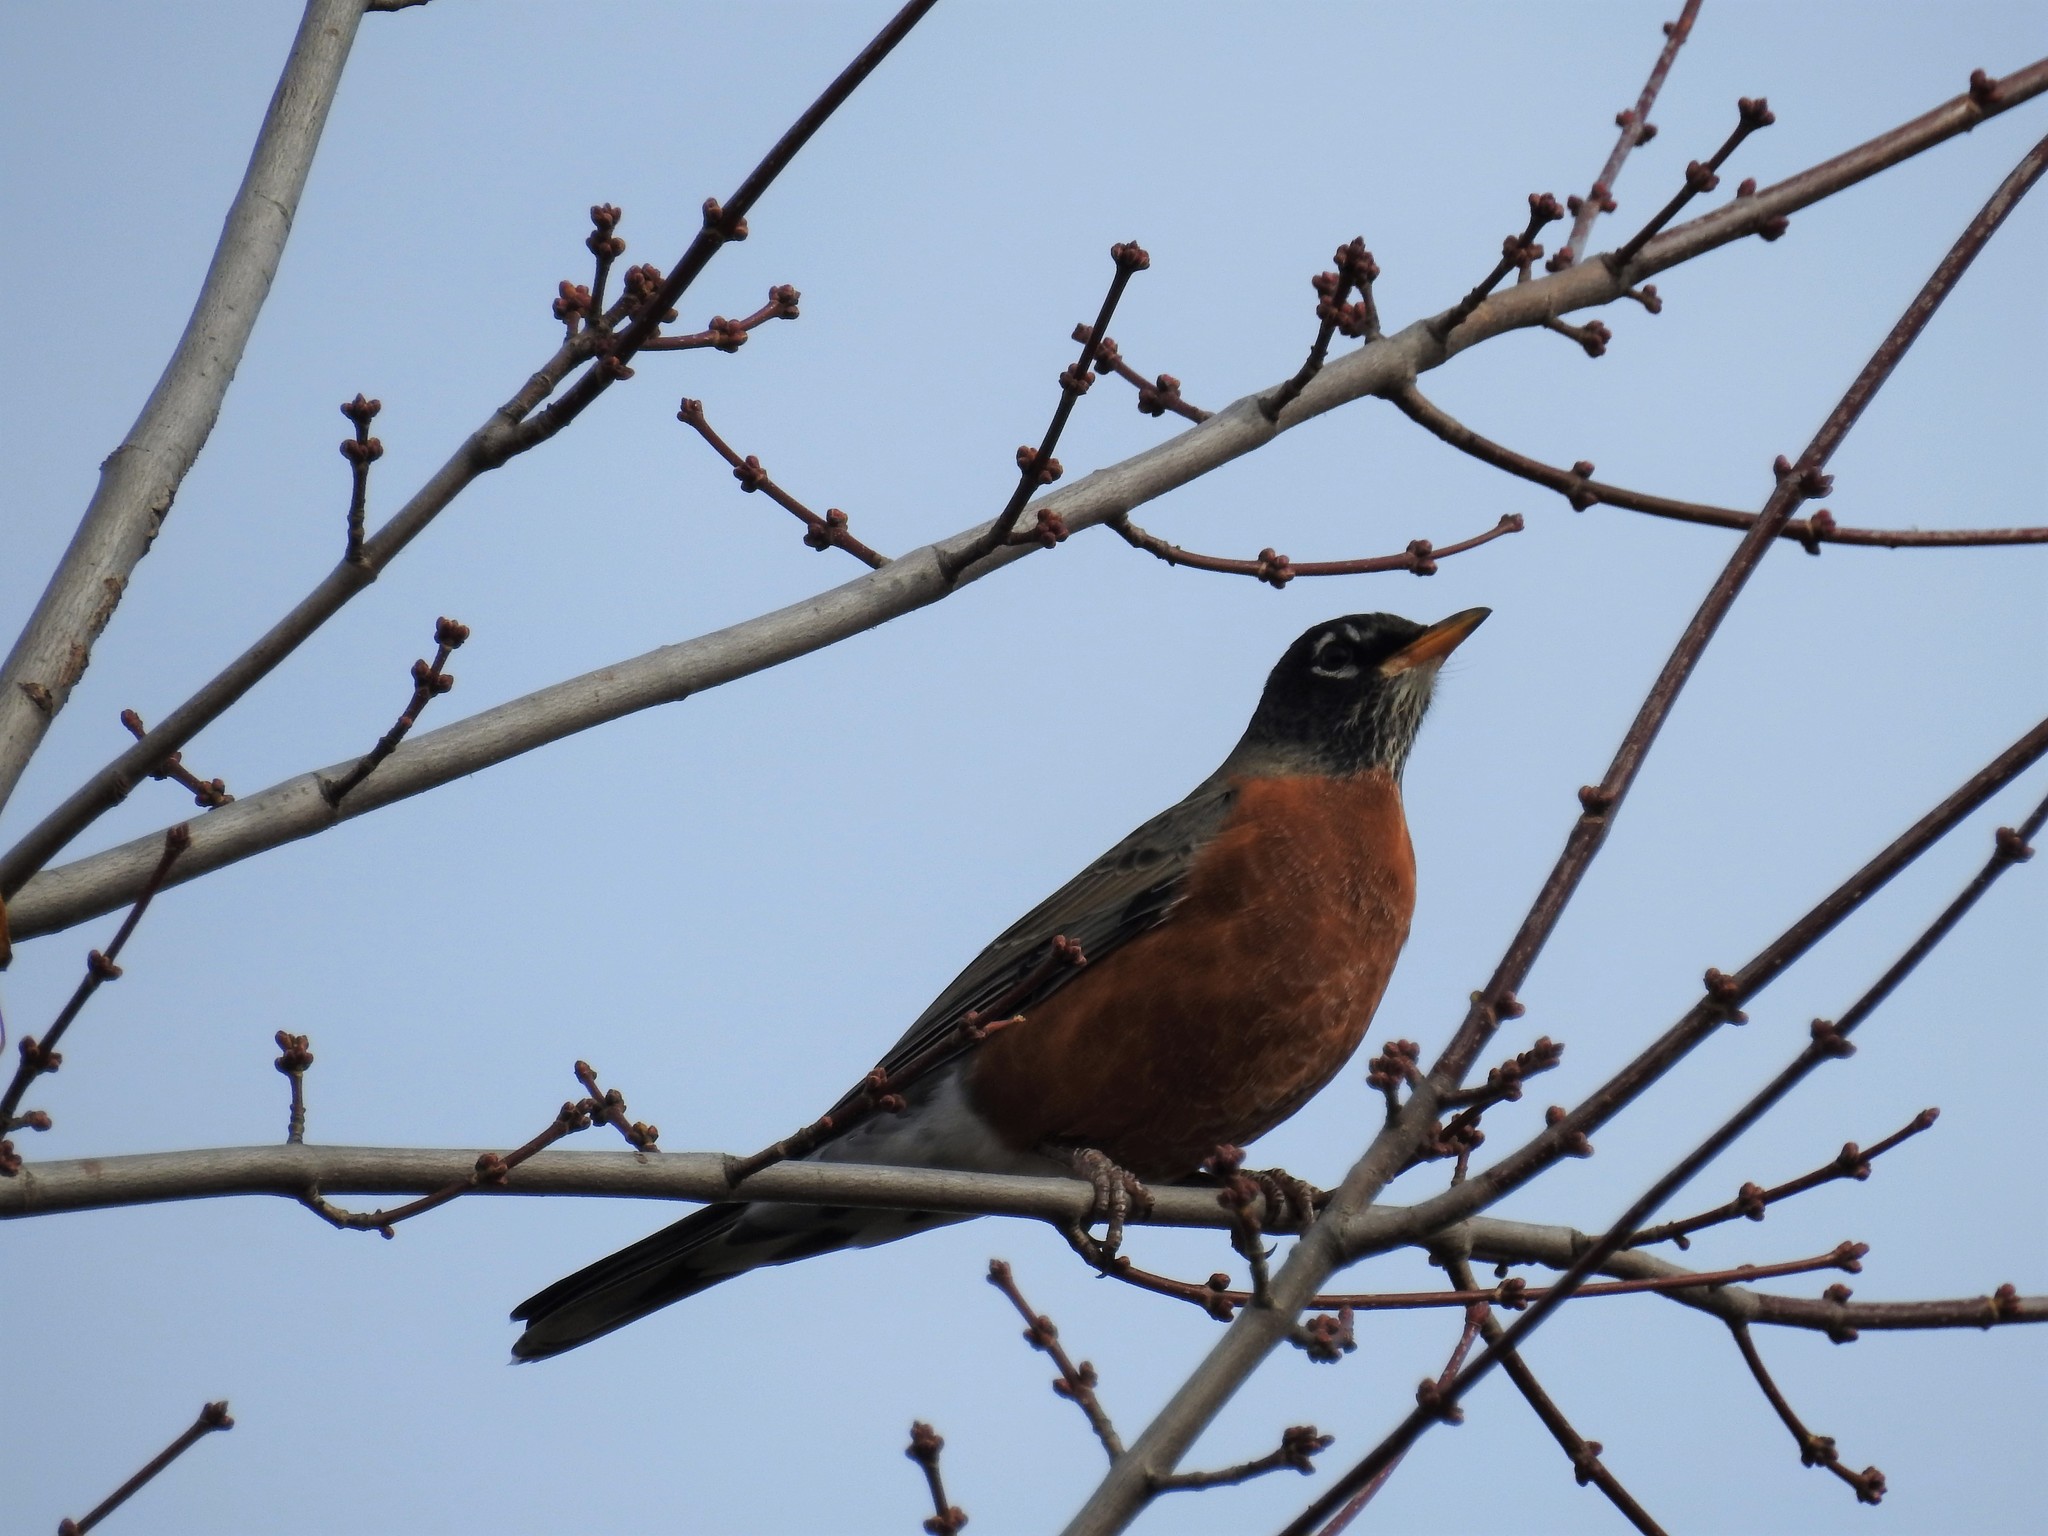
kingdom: Animalia
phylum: Chordata
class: Aves
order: Passeriformes
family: Turdidae
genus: Turdus
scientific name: Turdus migratorius
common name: American robin
